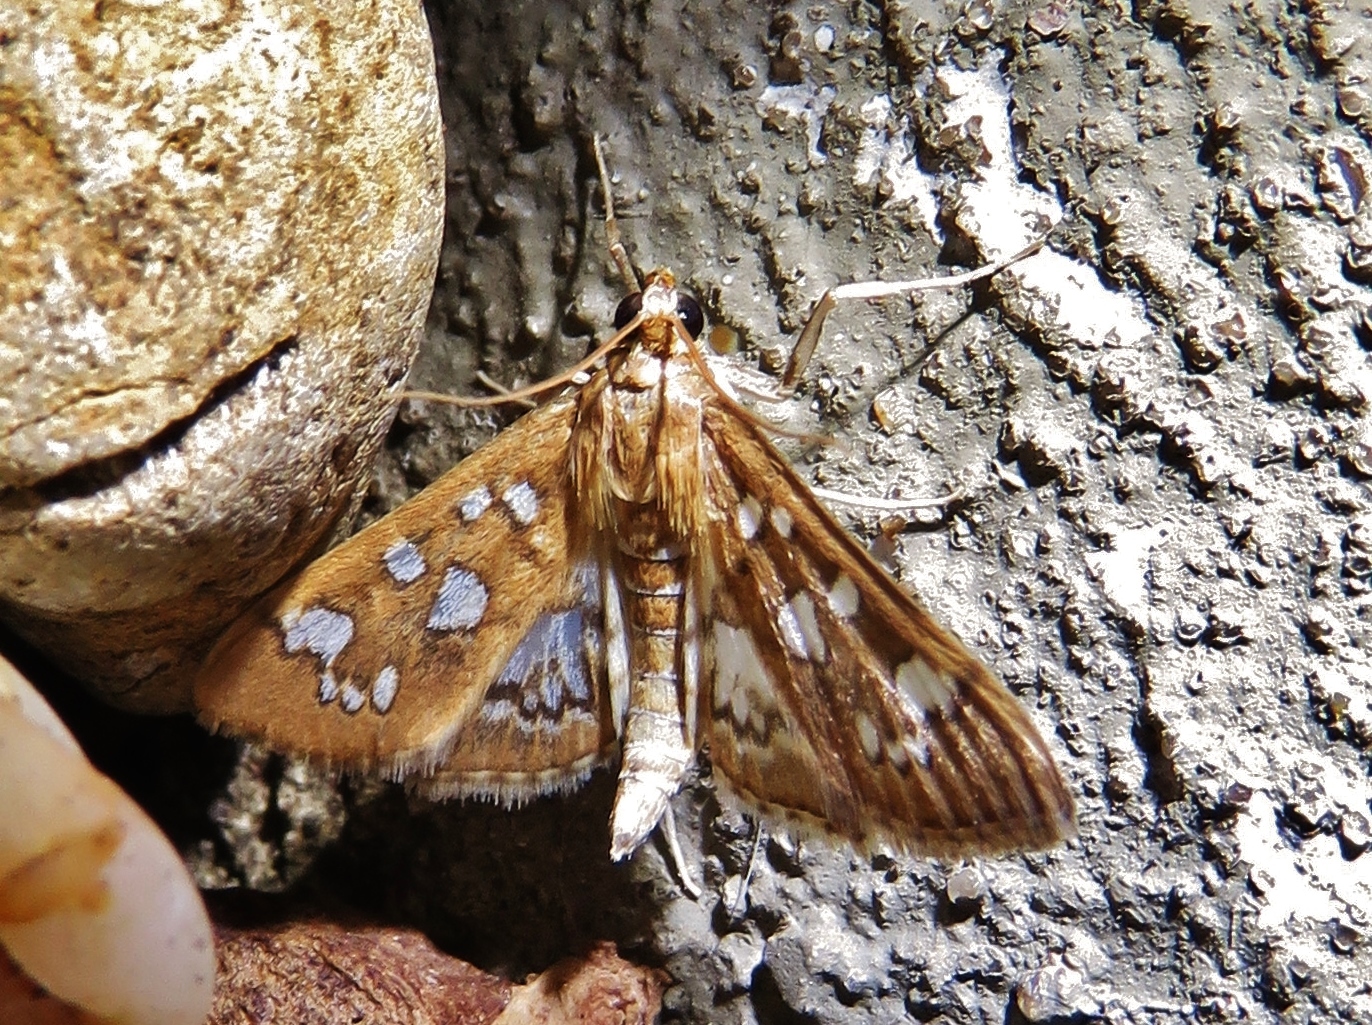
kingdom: Animalia
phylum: Arthropoda
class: Insecta
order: Lepidoptera
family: Crambidae
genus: Samea
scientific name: Samea baccatalis
